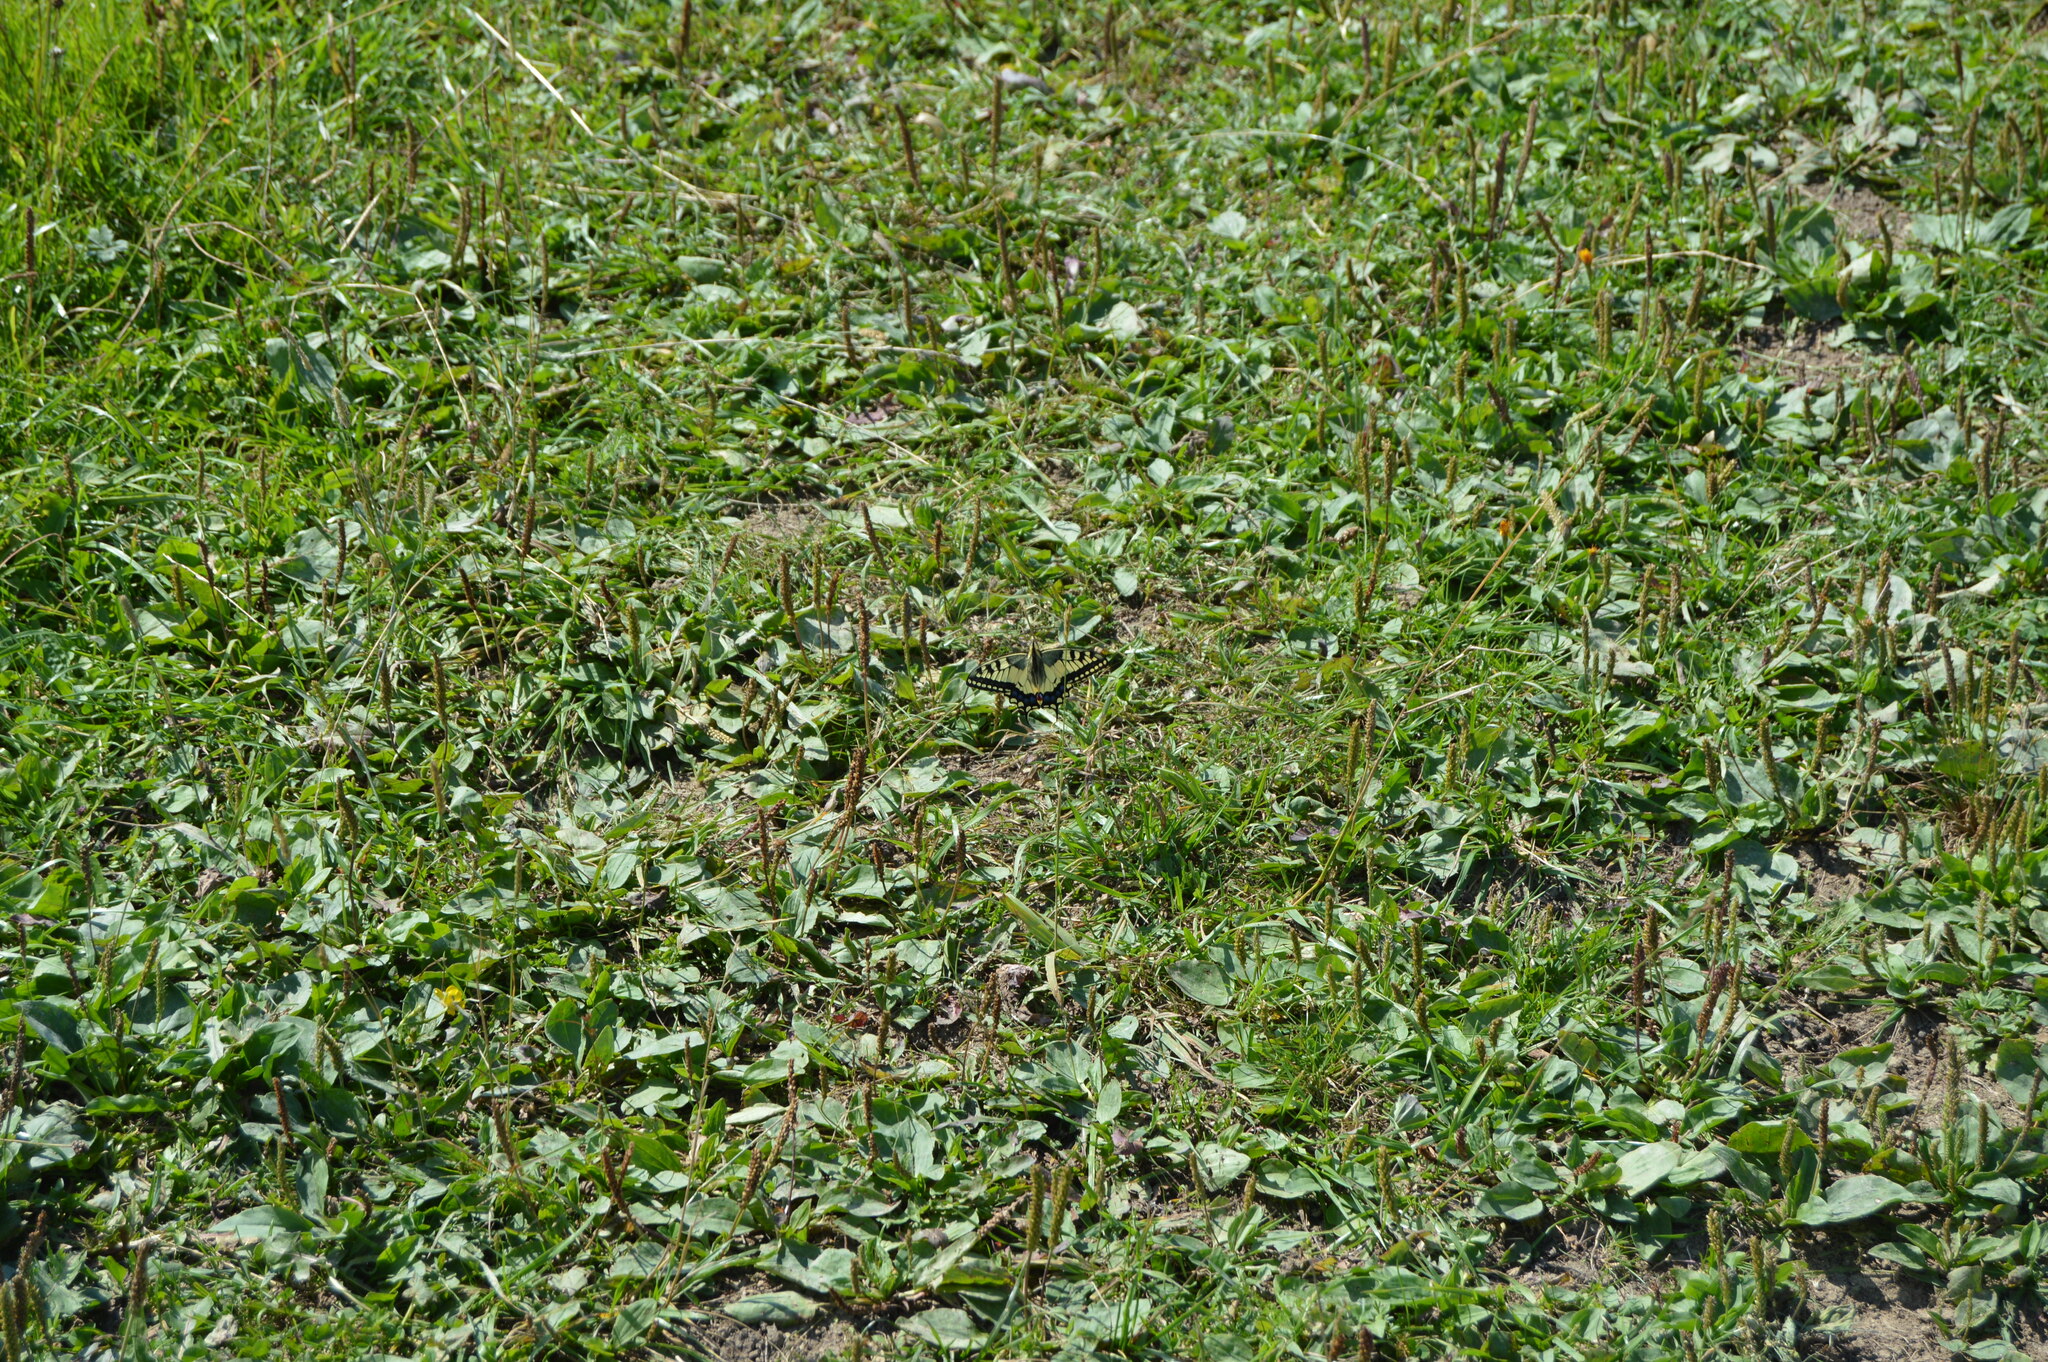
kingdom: Animalia
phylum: Arthropoda
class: Insecta
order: Lepidoptera
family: Papilionidae
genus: Papilio
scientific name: Papilio machaon
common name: Swallowtail
